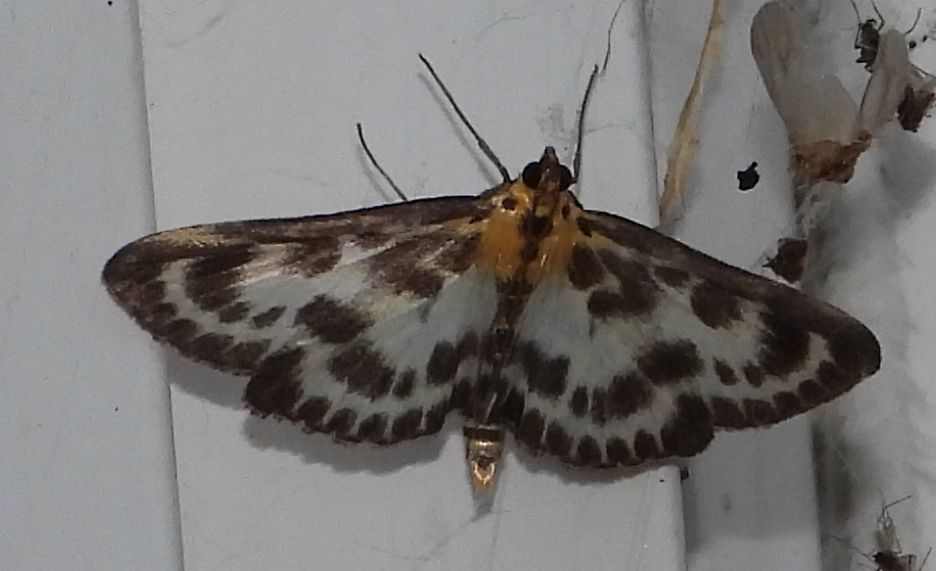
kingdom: Animalia
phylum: Arthropoda
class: Insecta
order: Lepidoptera
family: Crambidae
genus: Anania
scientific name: Anania hortulata
